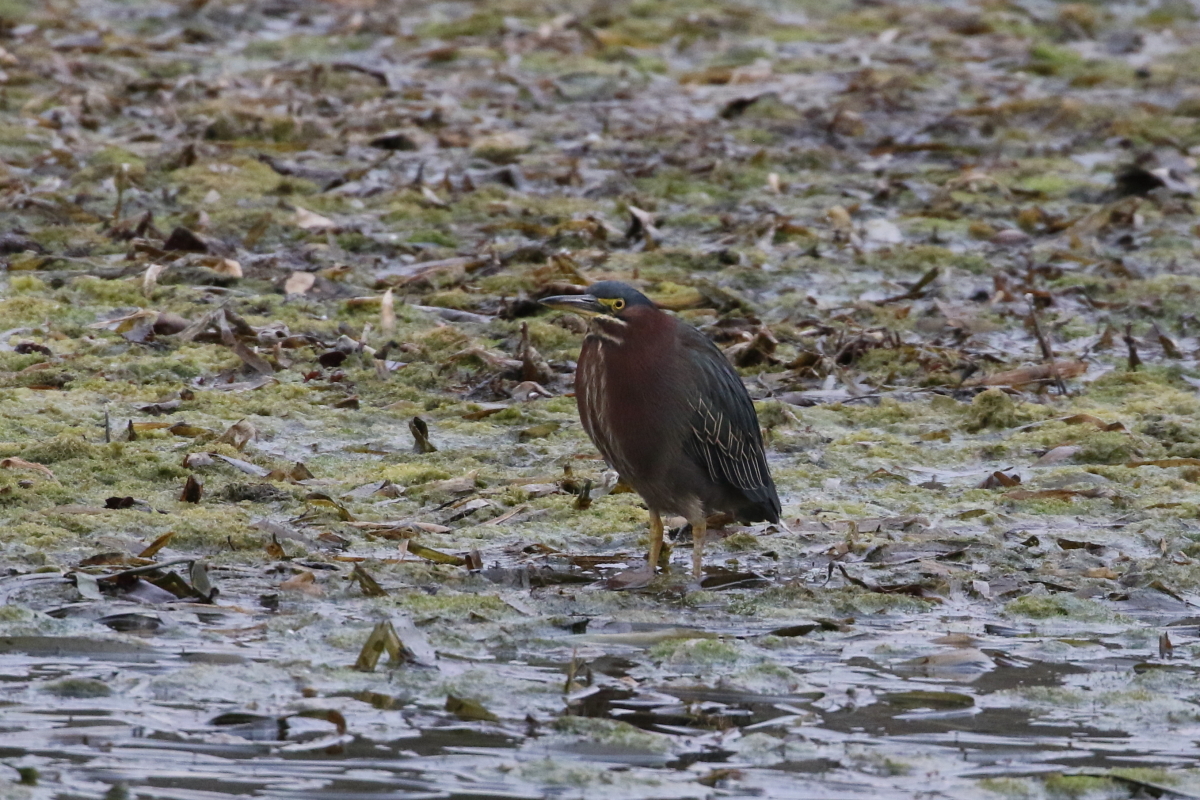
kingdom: Animalia
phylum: Chordata
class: Aves
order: Pelecaniformes
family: Ardeidae
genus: Butorides
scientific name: Butorides virescens
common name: Green heron
